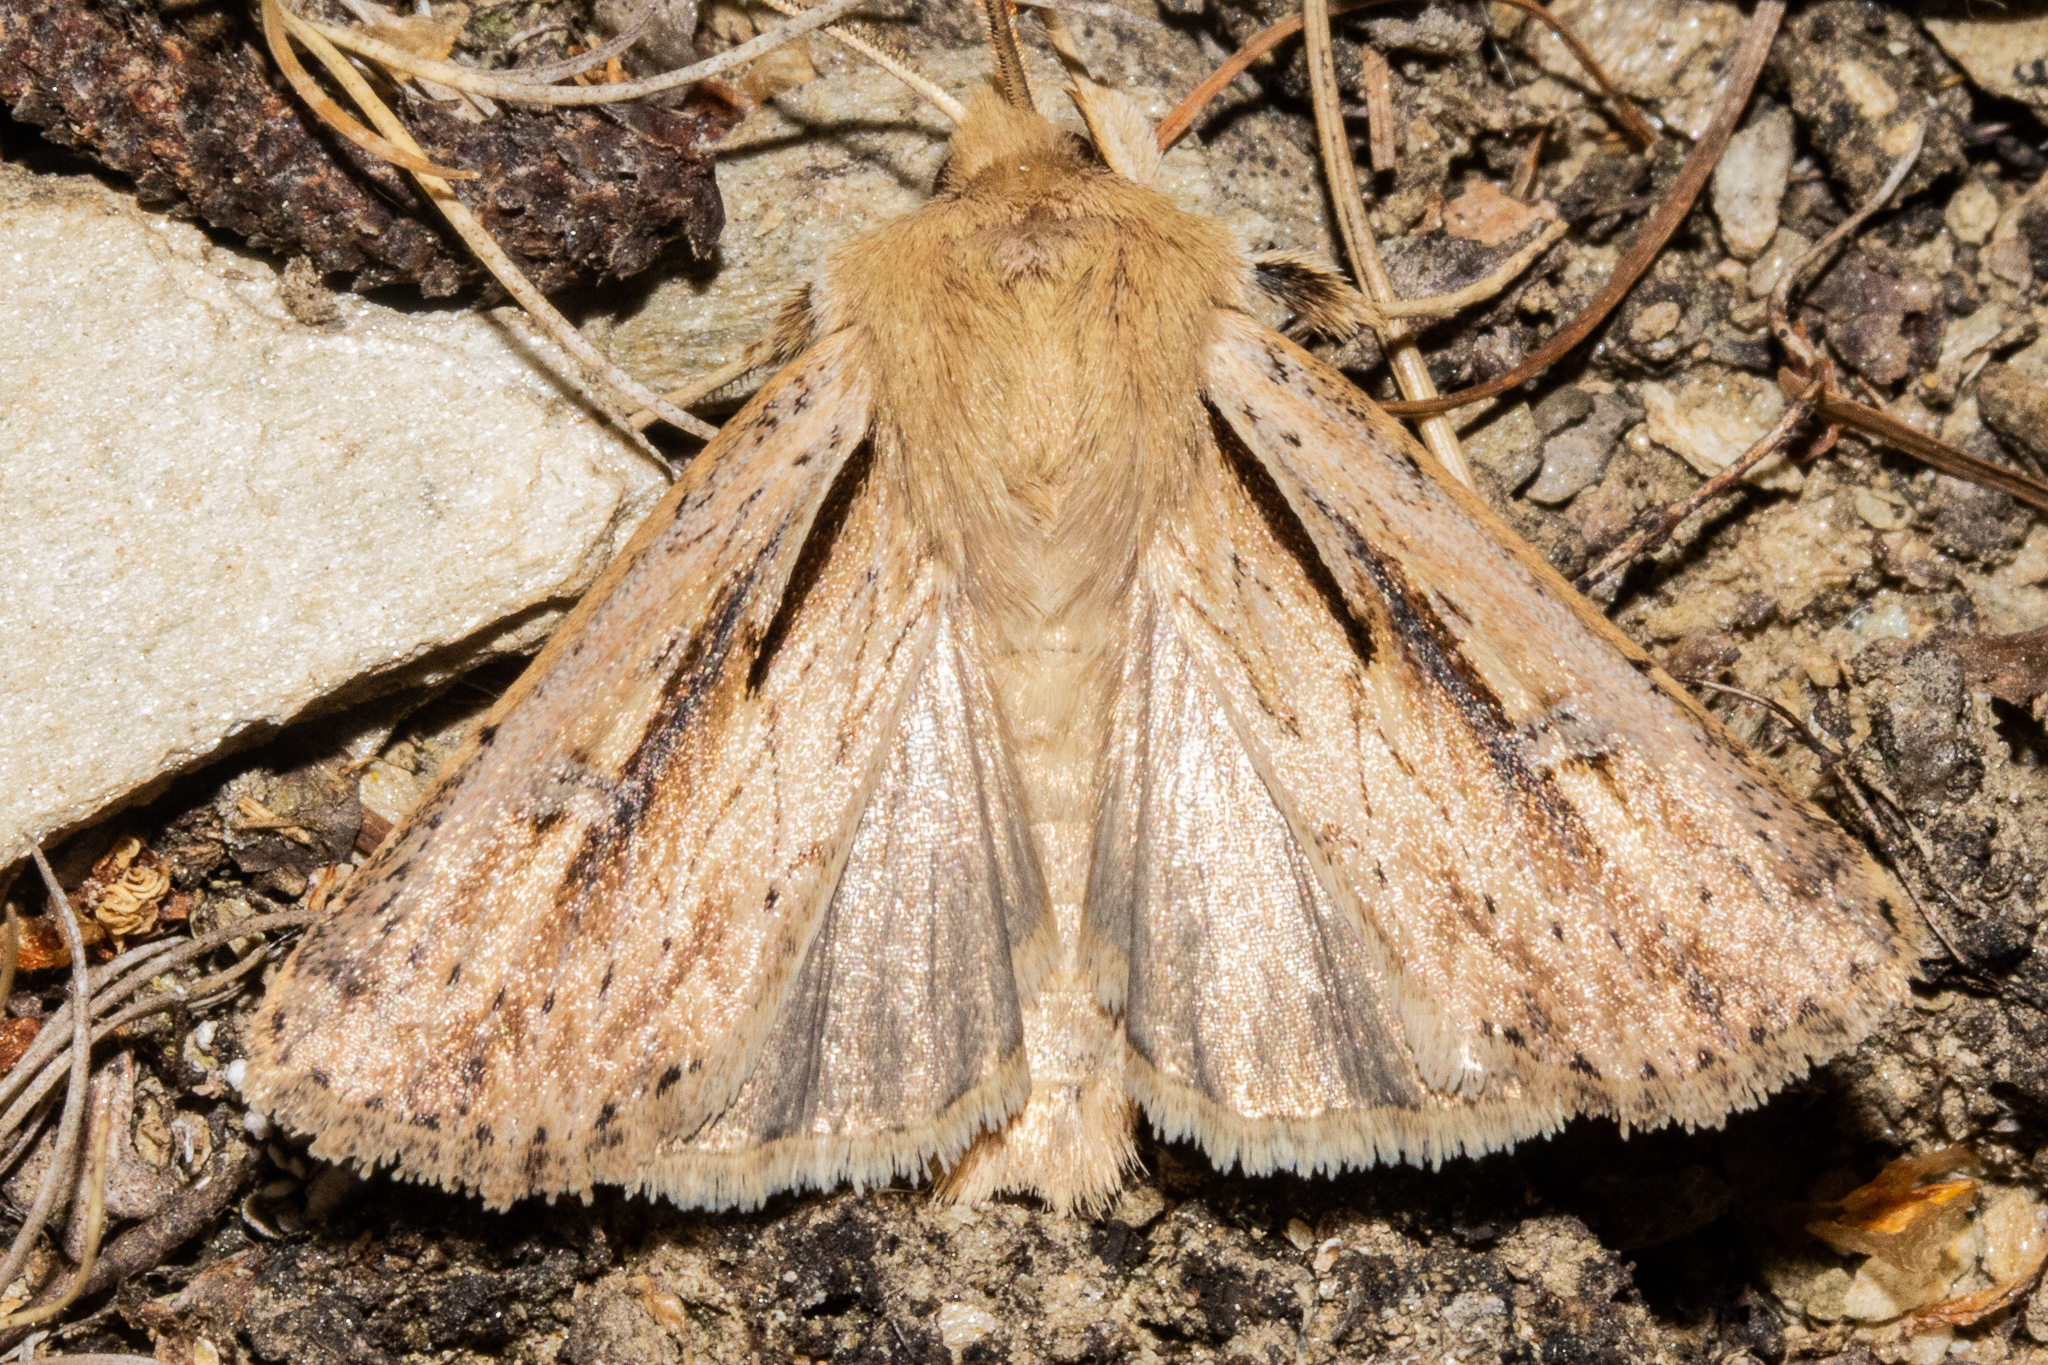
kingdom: Animalia
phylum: Arthropoda
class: Insecta
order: Lepidoptera
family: Noctuidae
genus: Ichneutica
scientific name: Ichneutica propria
